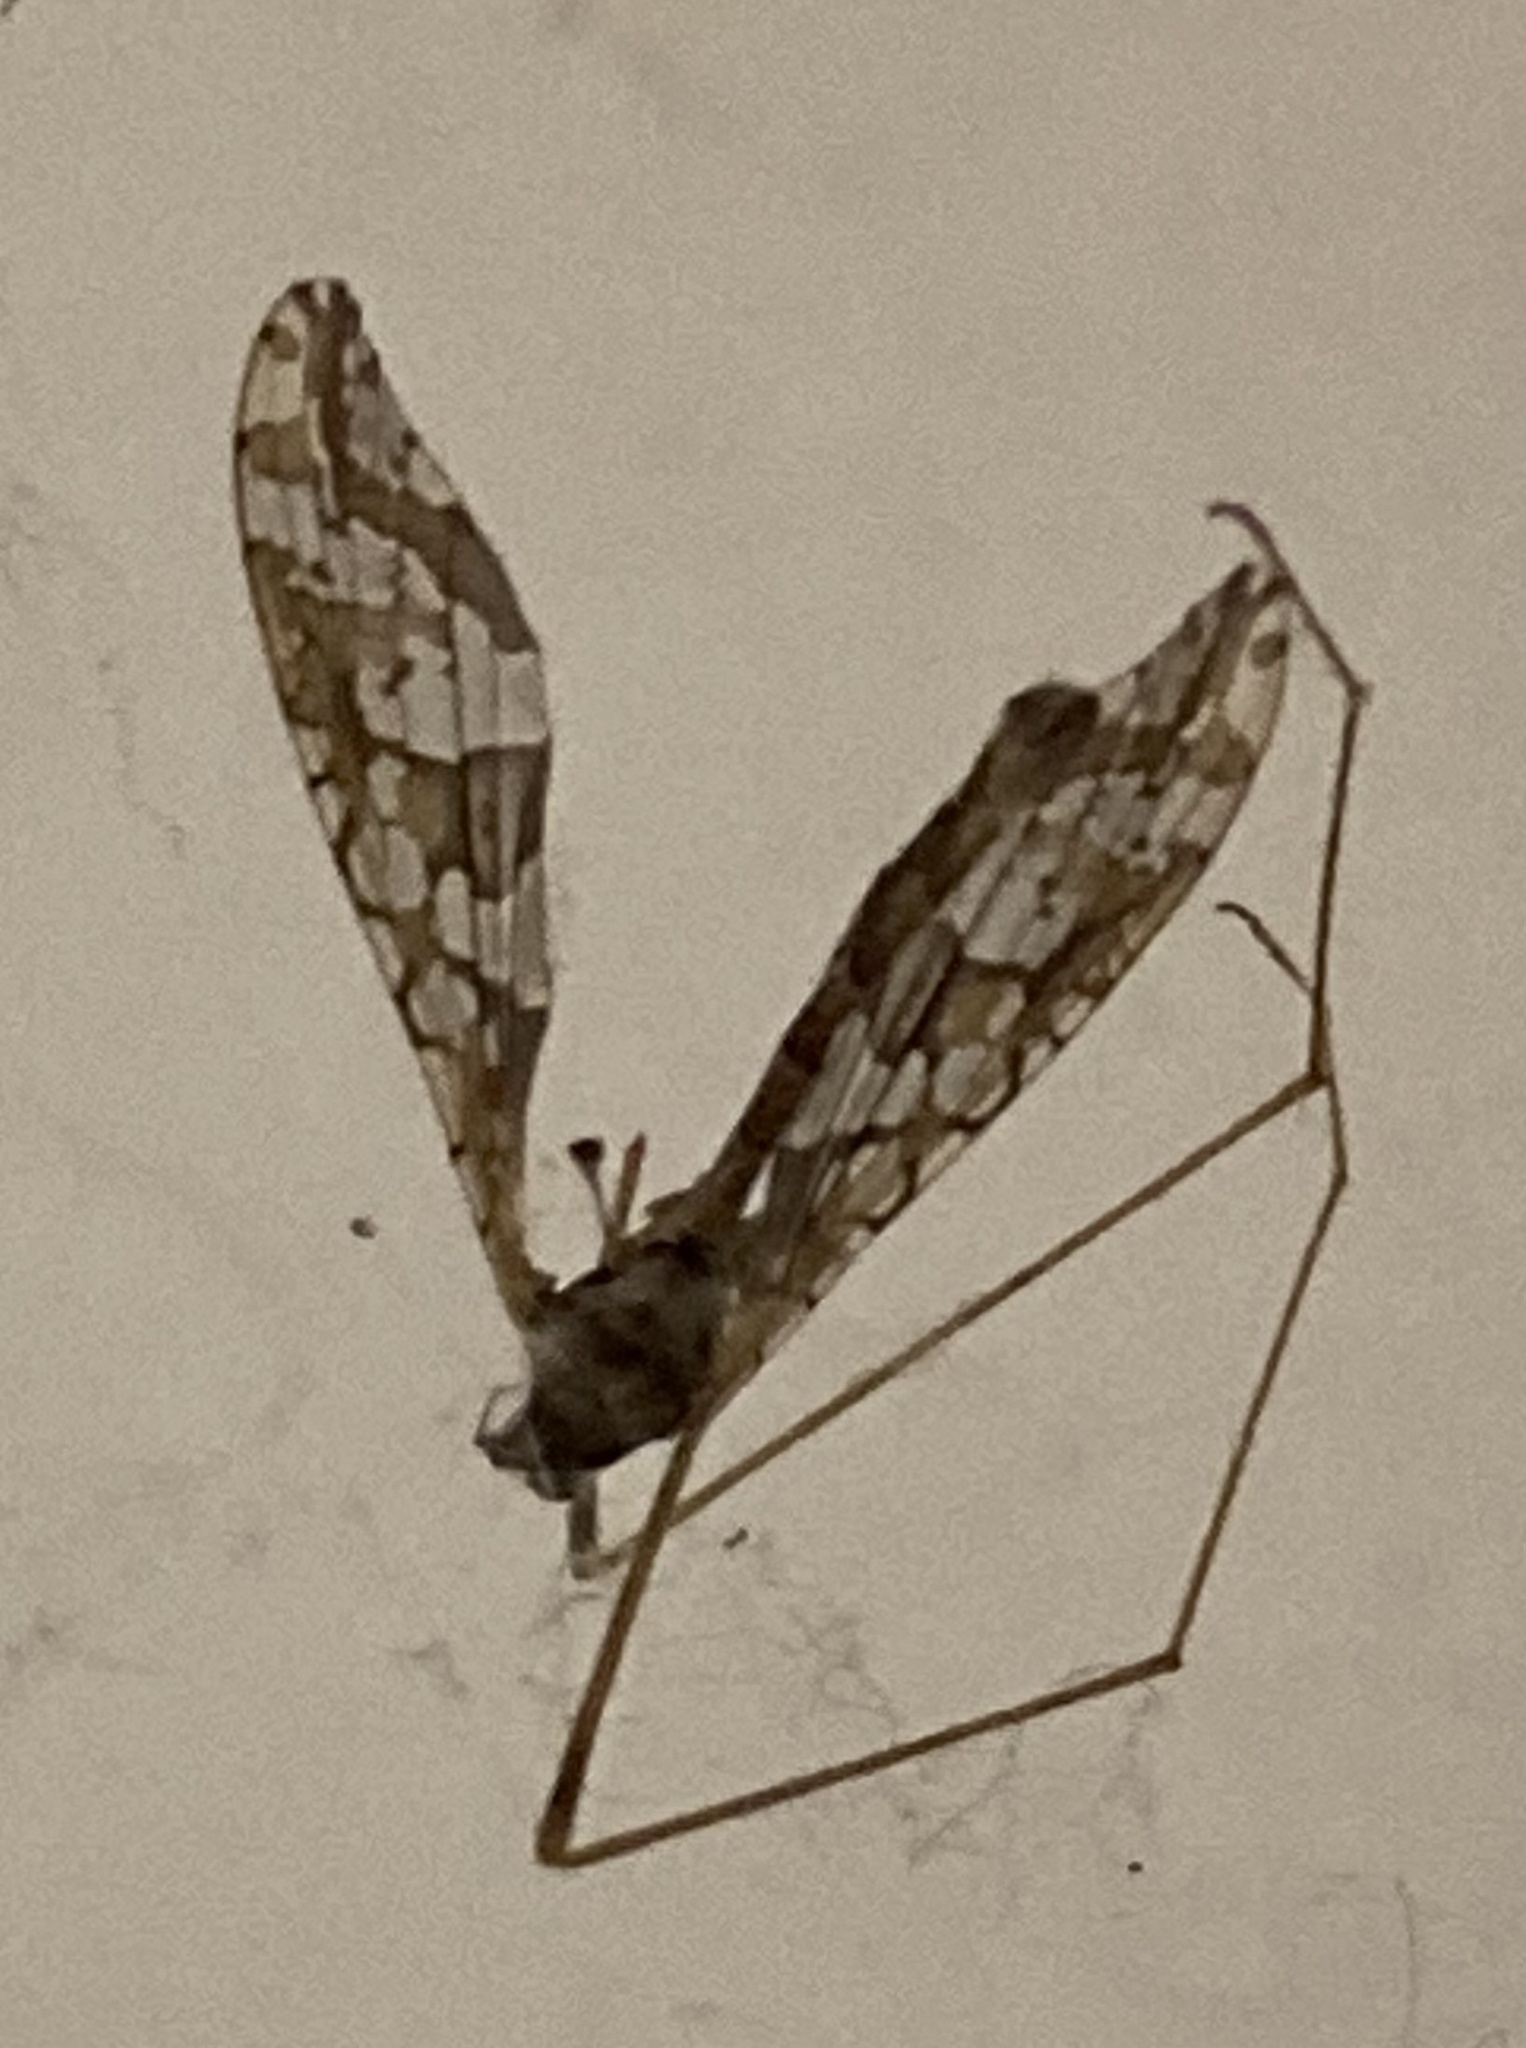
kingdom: Animalia
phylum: Arthropoda
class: Insecta
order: Diptera
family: Limoniidae
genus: Epiphragma
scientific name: Epiphragma solatrix
